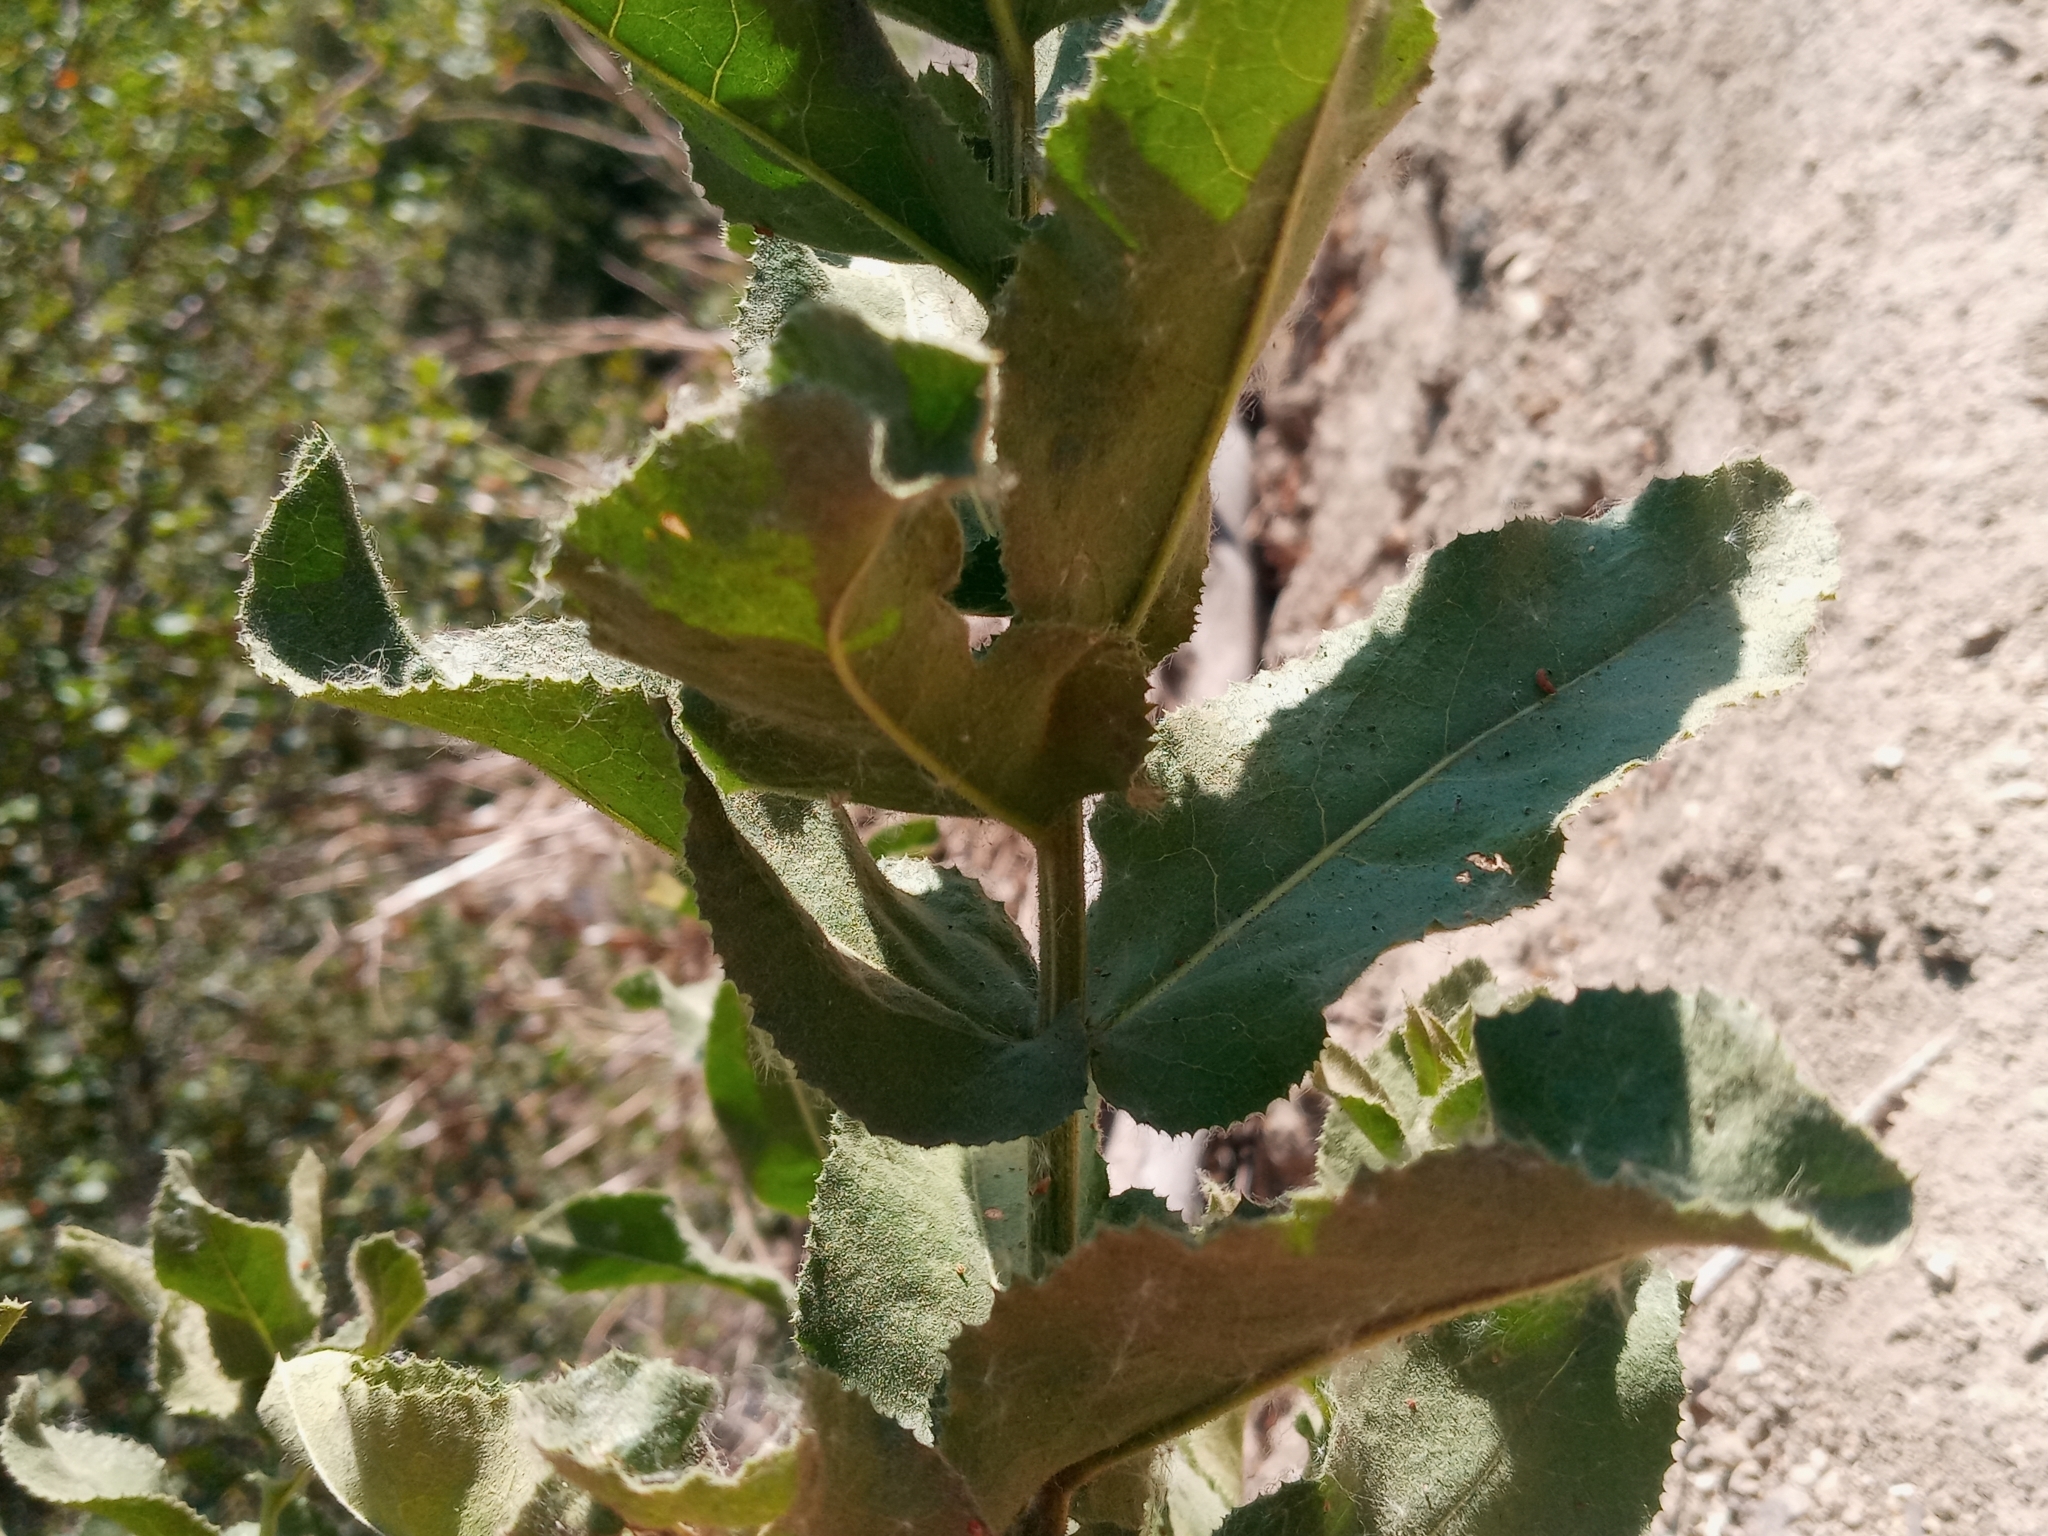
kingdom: Plantae
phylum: Tracheophyta
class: Magnoliopsida
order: Asterales
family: Asteraceae
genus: Acourtia
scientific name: Acourtia microcephala
